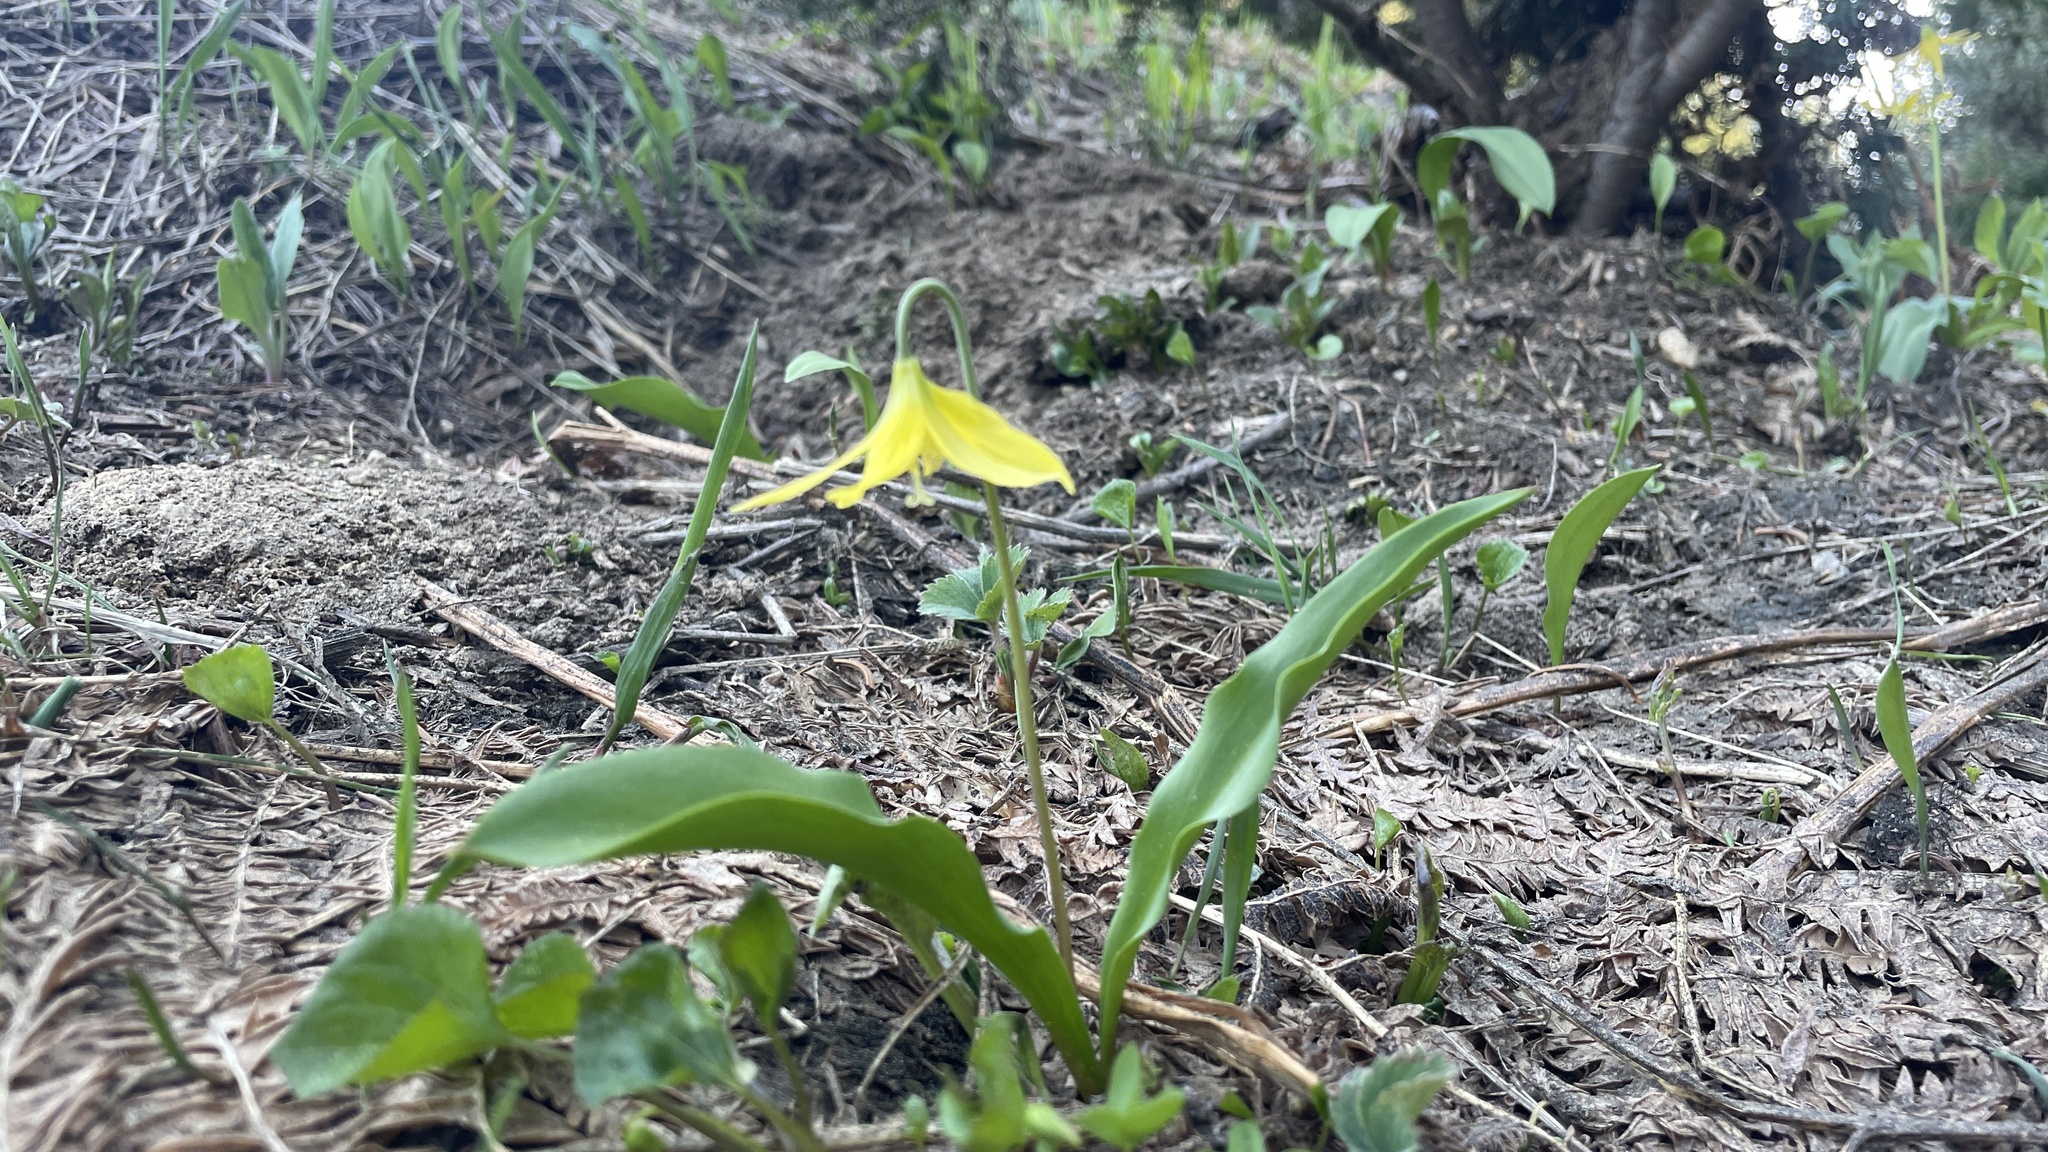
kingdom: Plantae
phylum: Tracheophyta
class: Liliopsida
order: Liliales
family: Liliaceae
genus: Erythronium
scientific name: Erythronium grandiflorum
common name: Avalanche-lily
